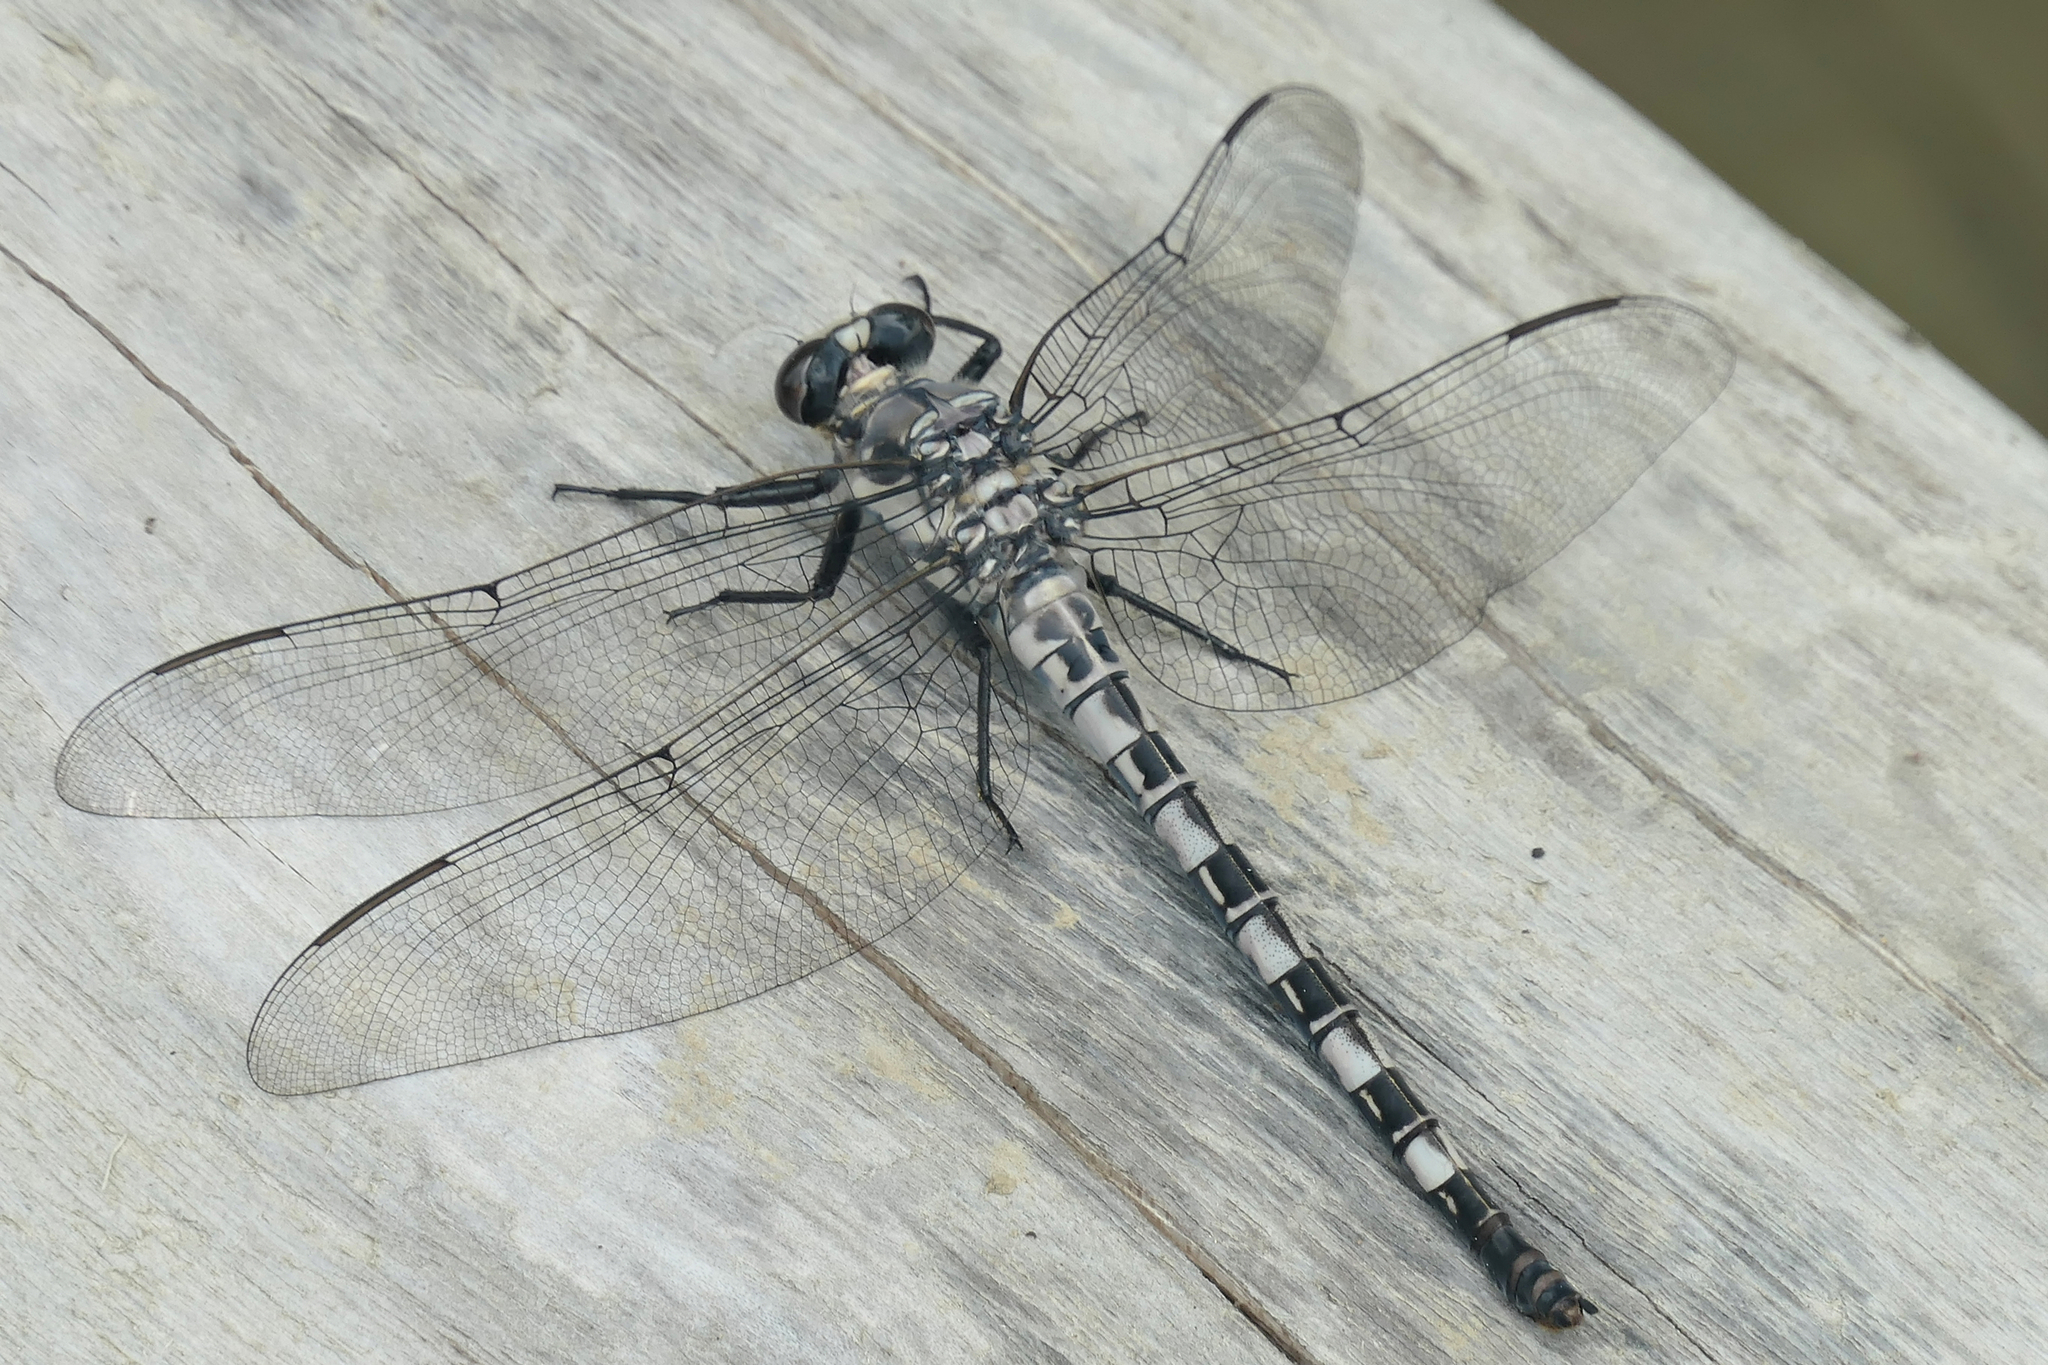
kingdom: Animalia
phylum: Arthropoda
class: Insecta
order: Odonata
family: Petaluridae
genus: Tachopteryx
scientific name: Tachopteryx thoreyi
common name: Gray petaltail
